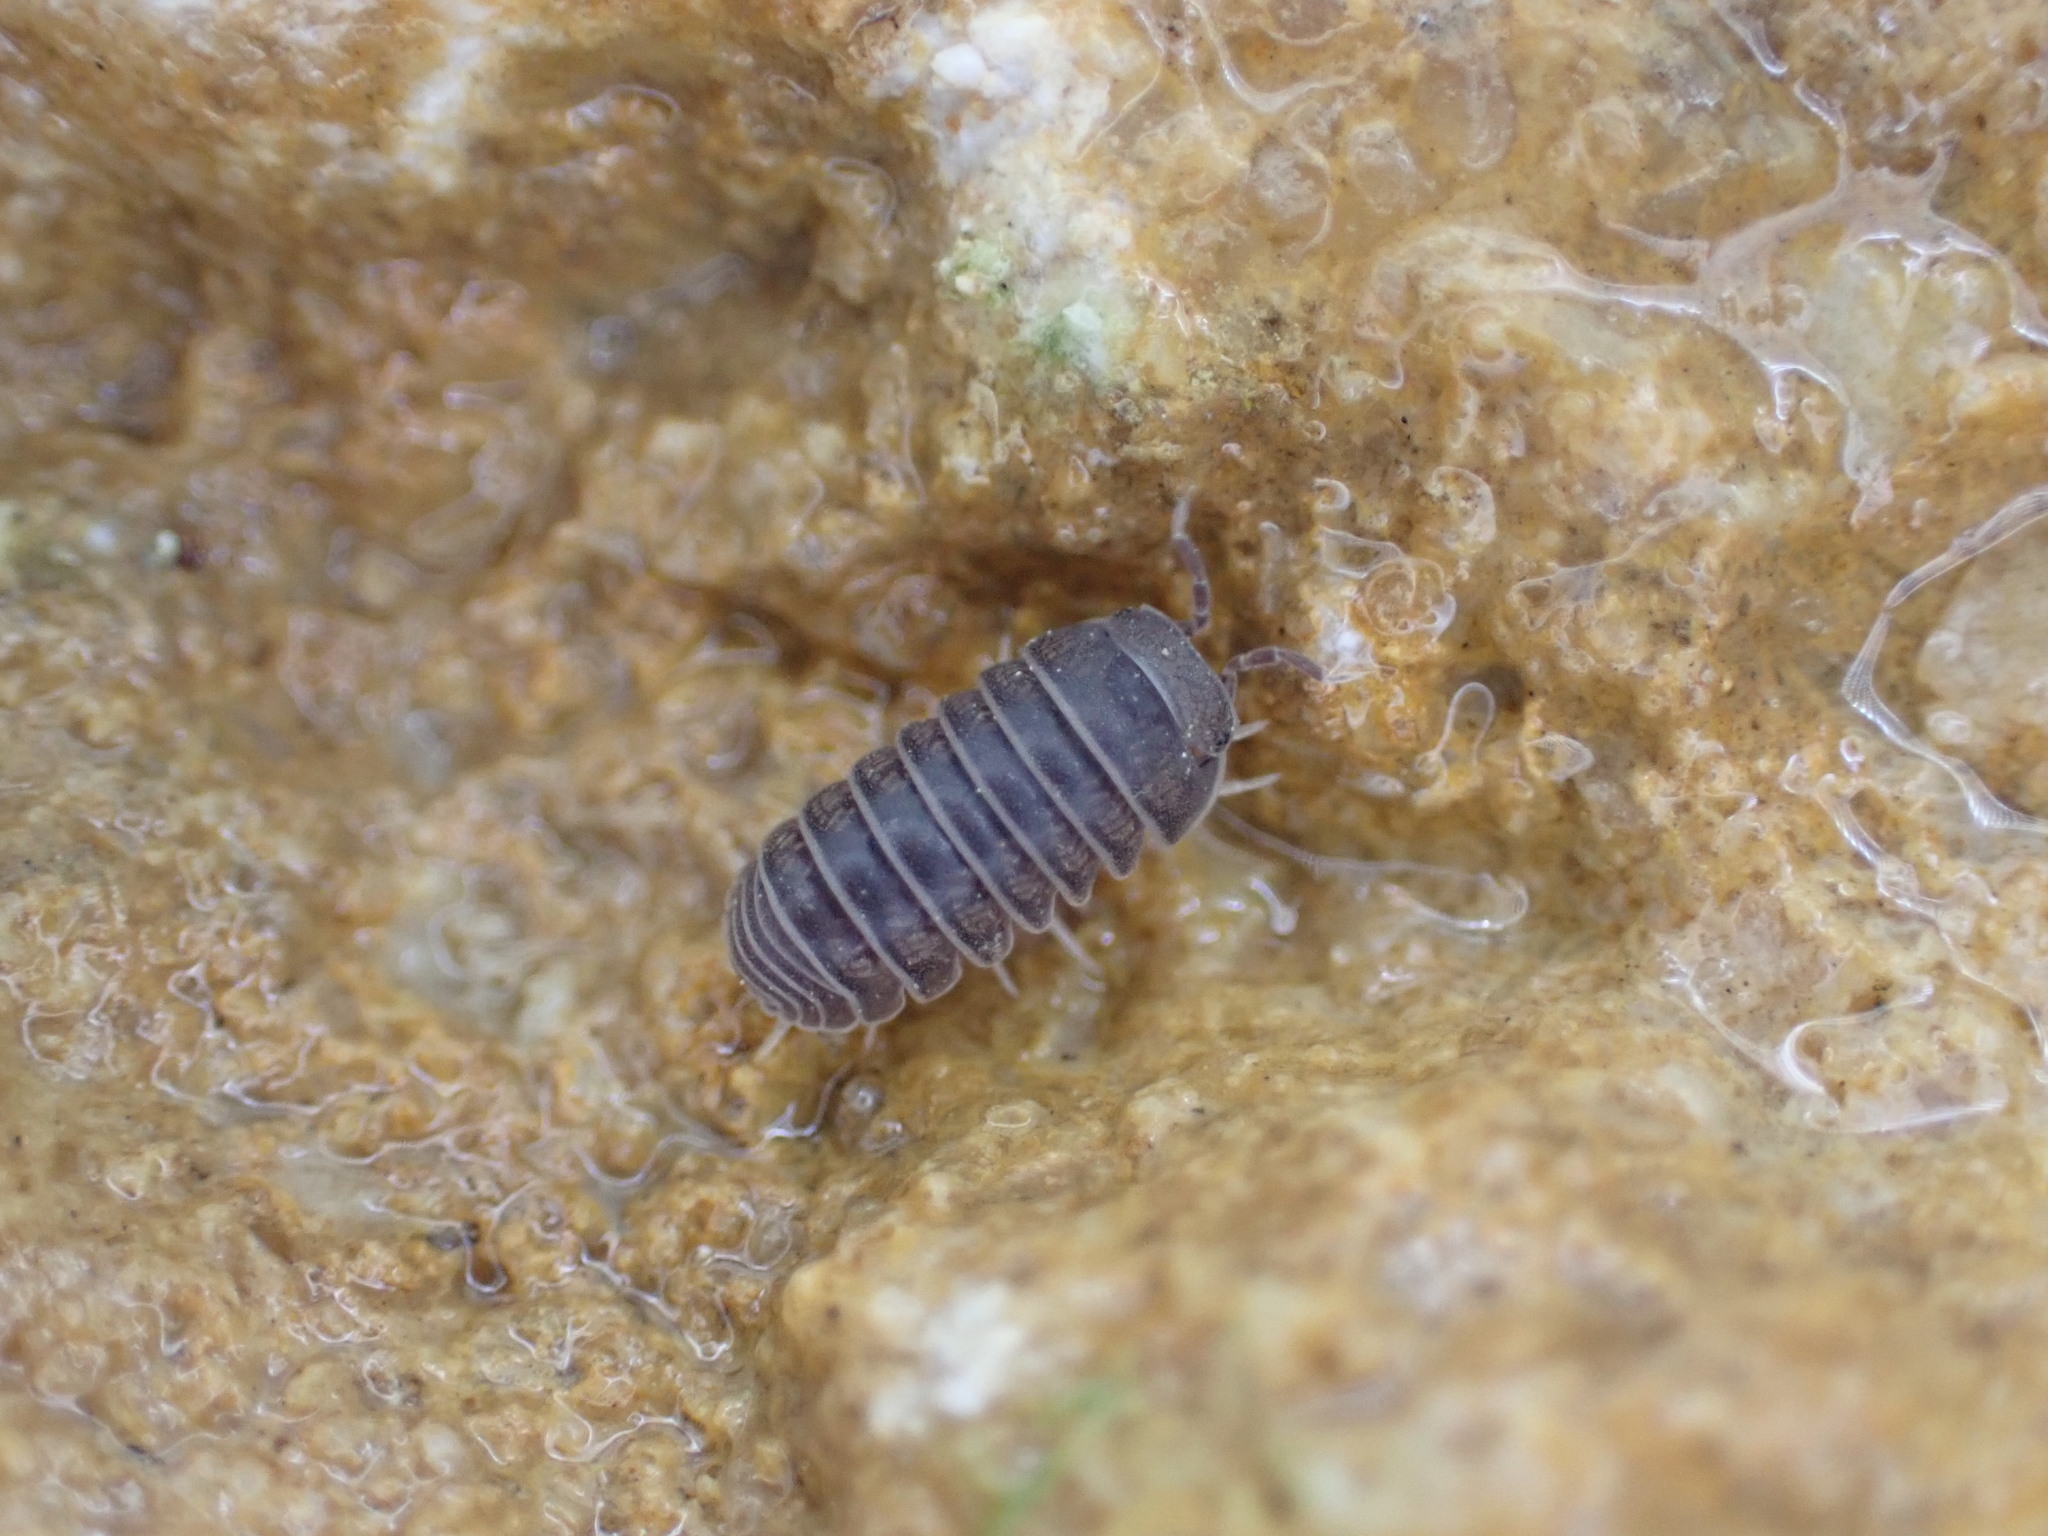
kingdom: Animalia
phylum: Arthropoda
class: Malacostraca
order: Isopoda
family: Armadillidae
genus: Armadillo
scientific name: Armadillo officinalis
